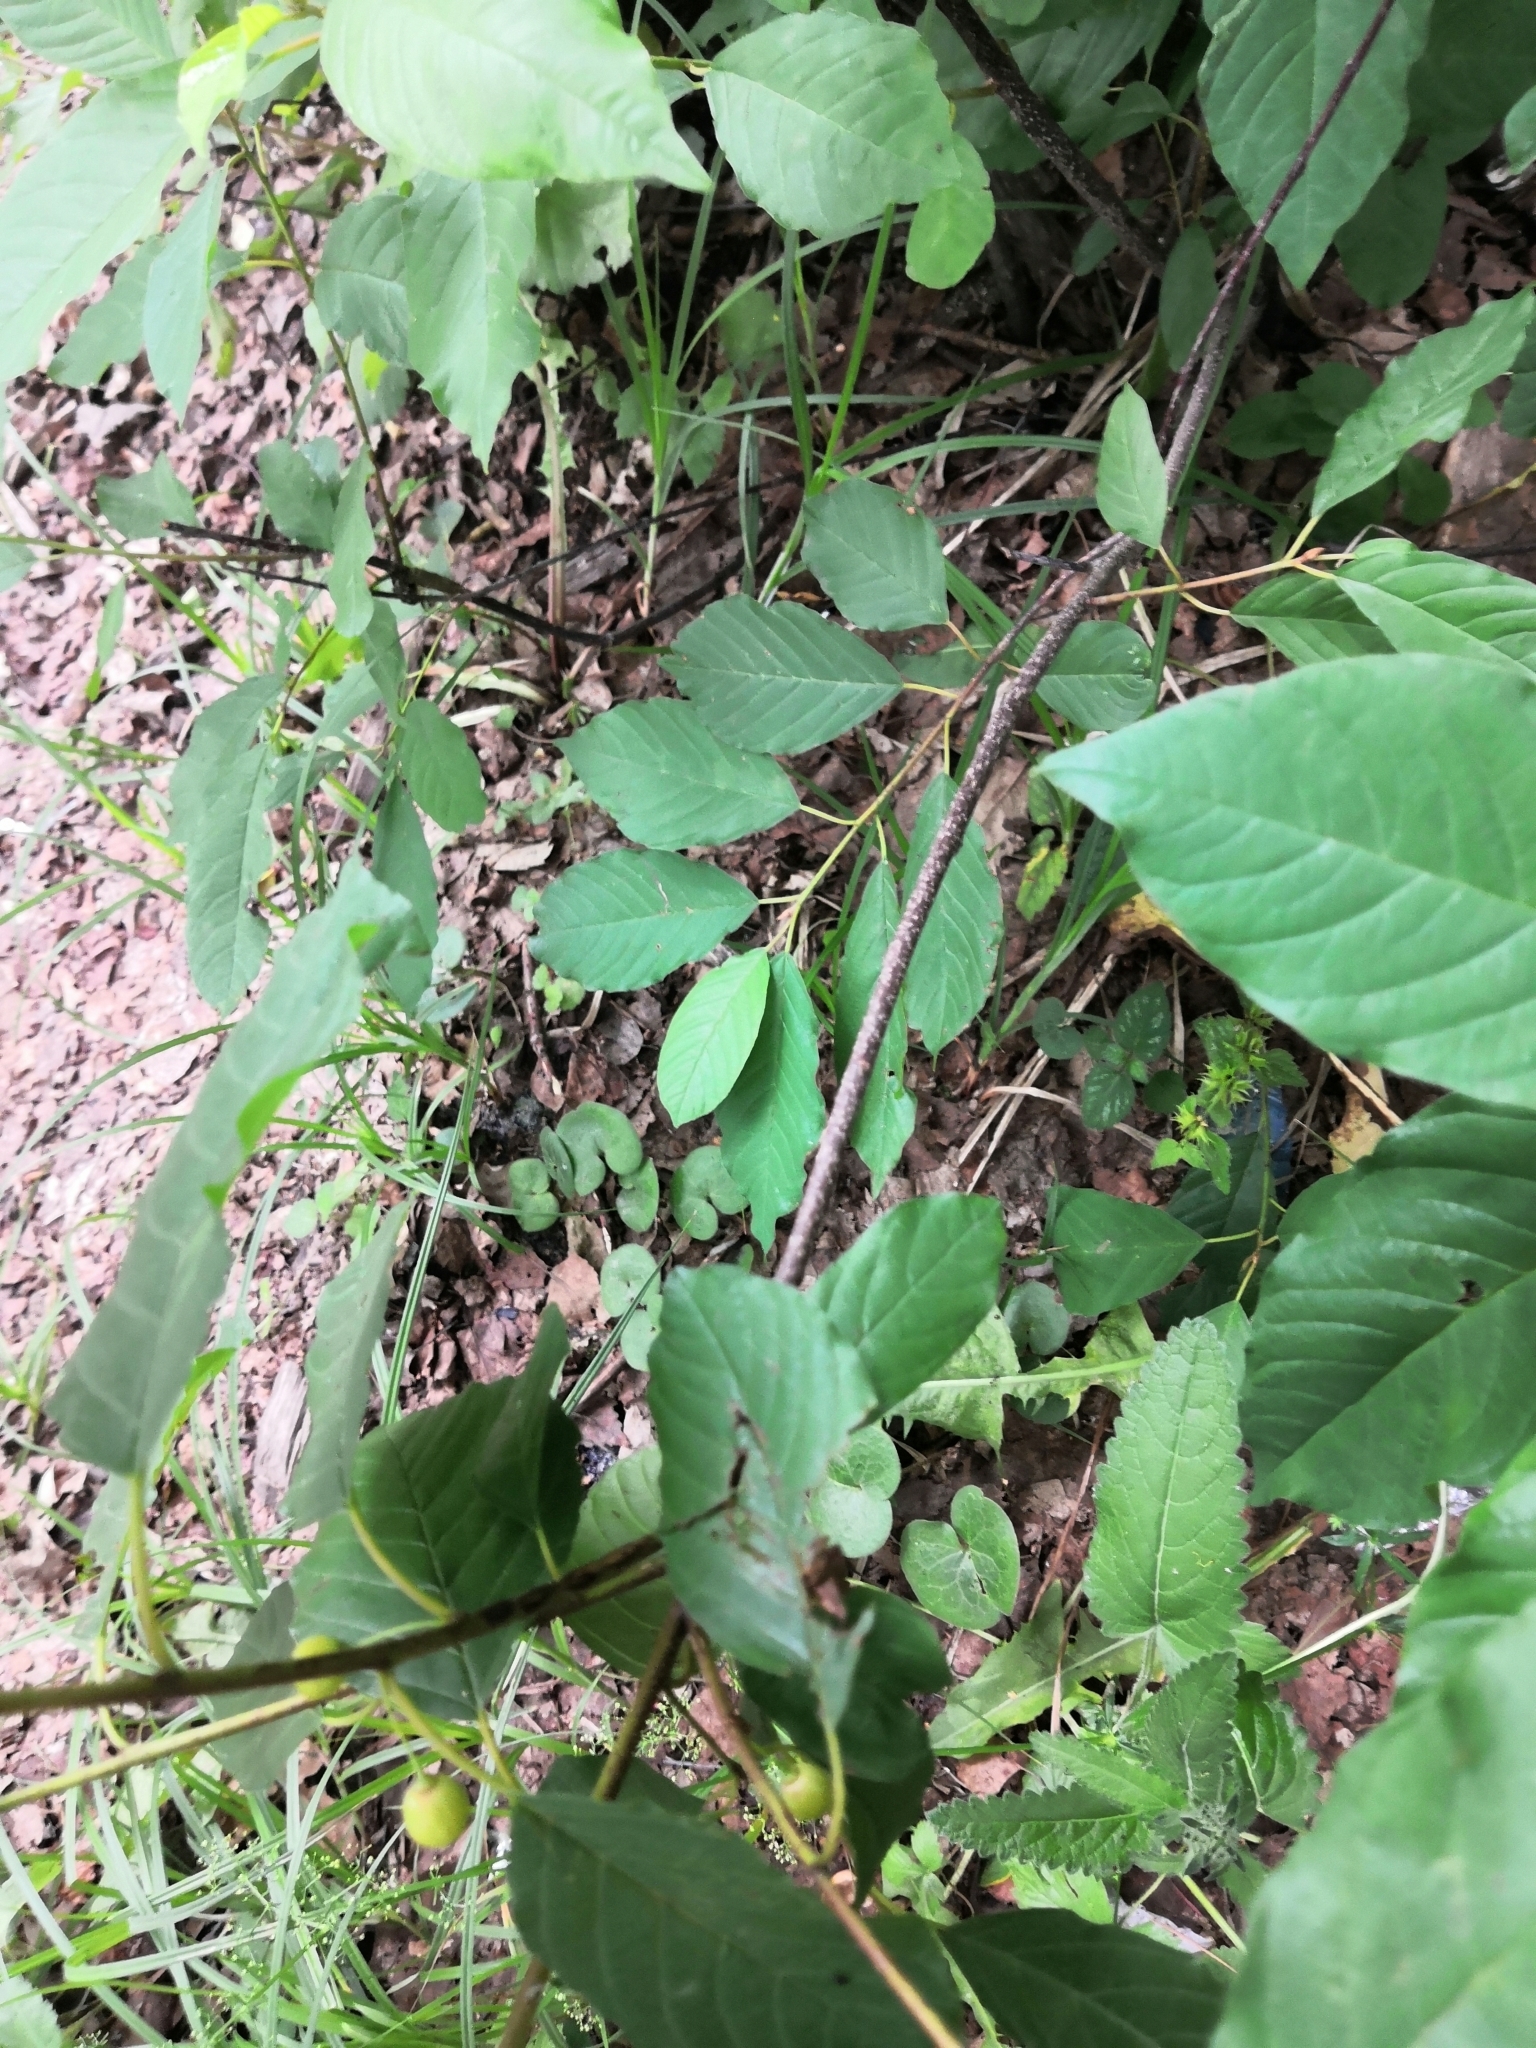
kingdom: Plantae
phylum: Tracheophyta
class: Magnoliopsida
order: Rosales
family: Rhamnaceae
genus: Frangula
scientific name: Frangula alnus
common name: Alder buckthorn
